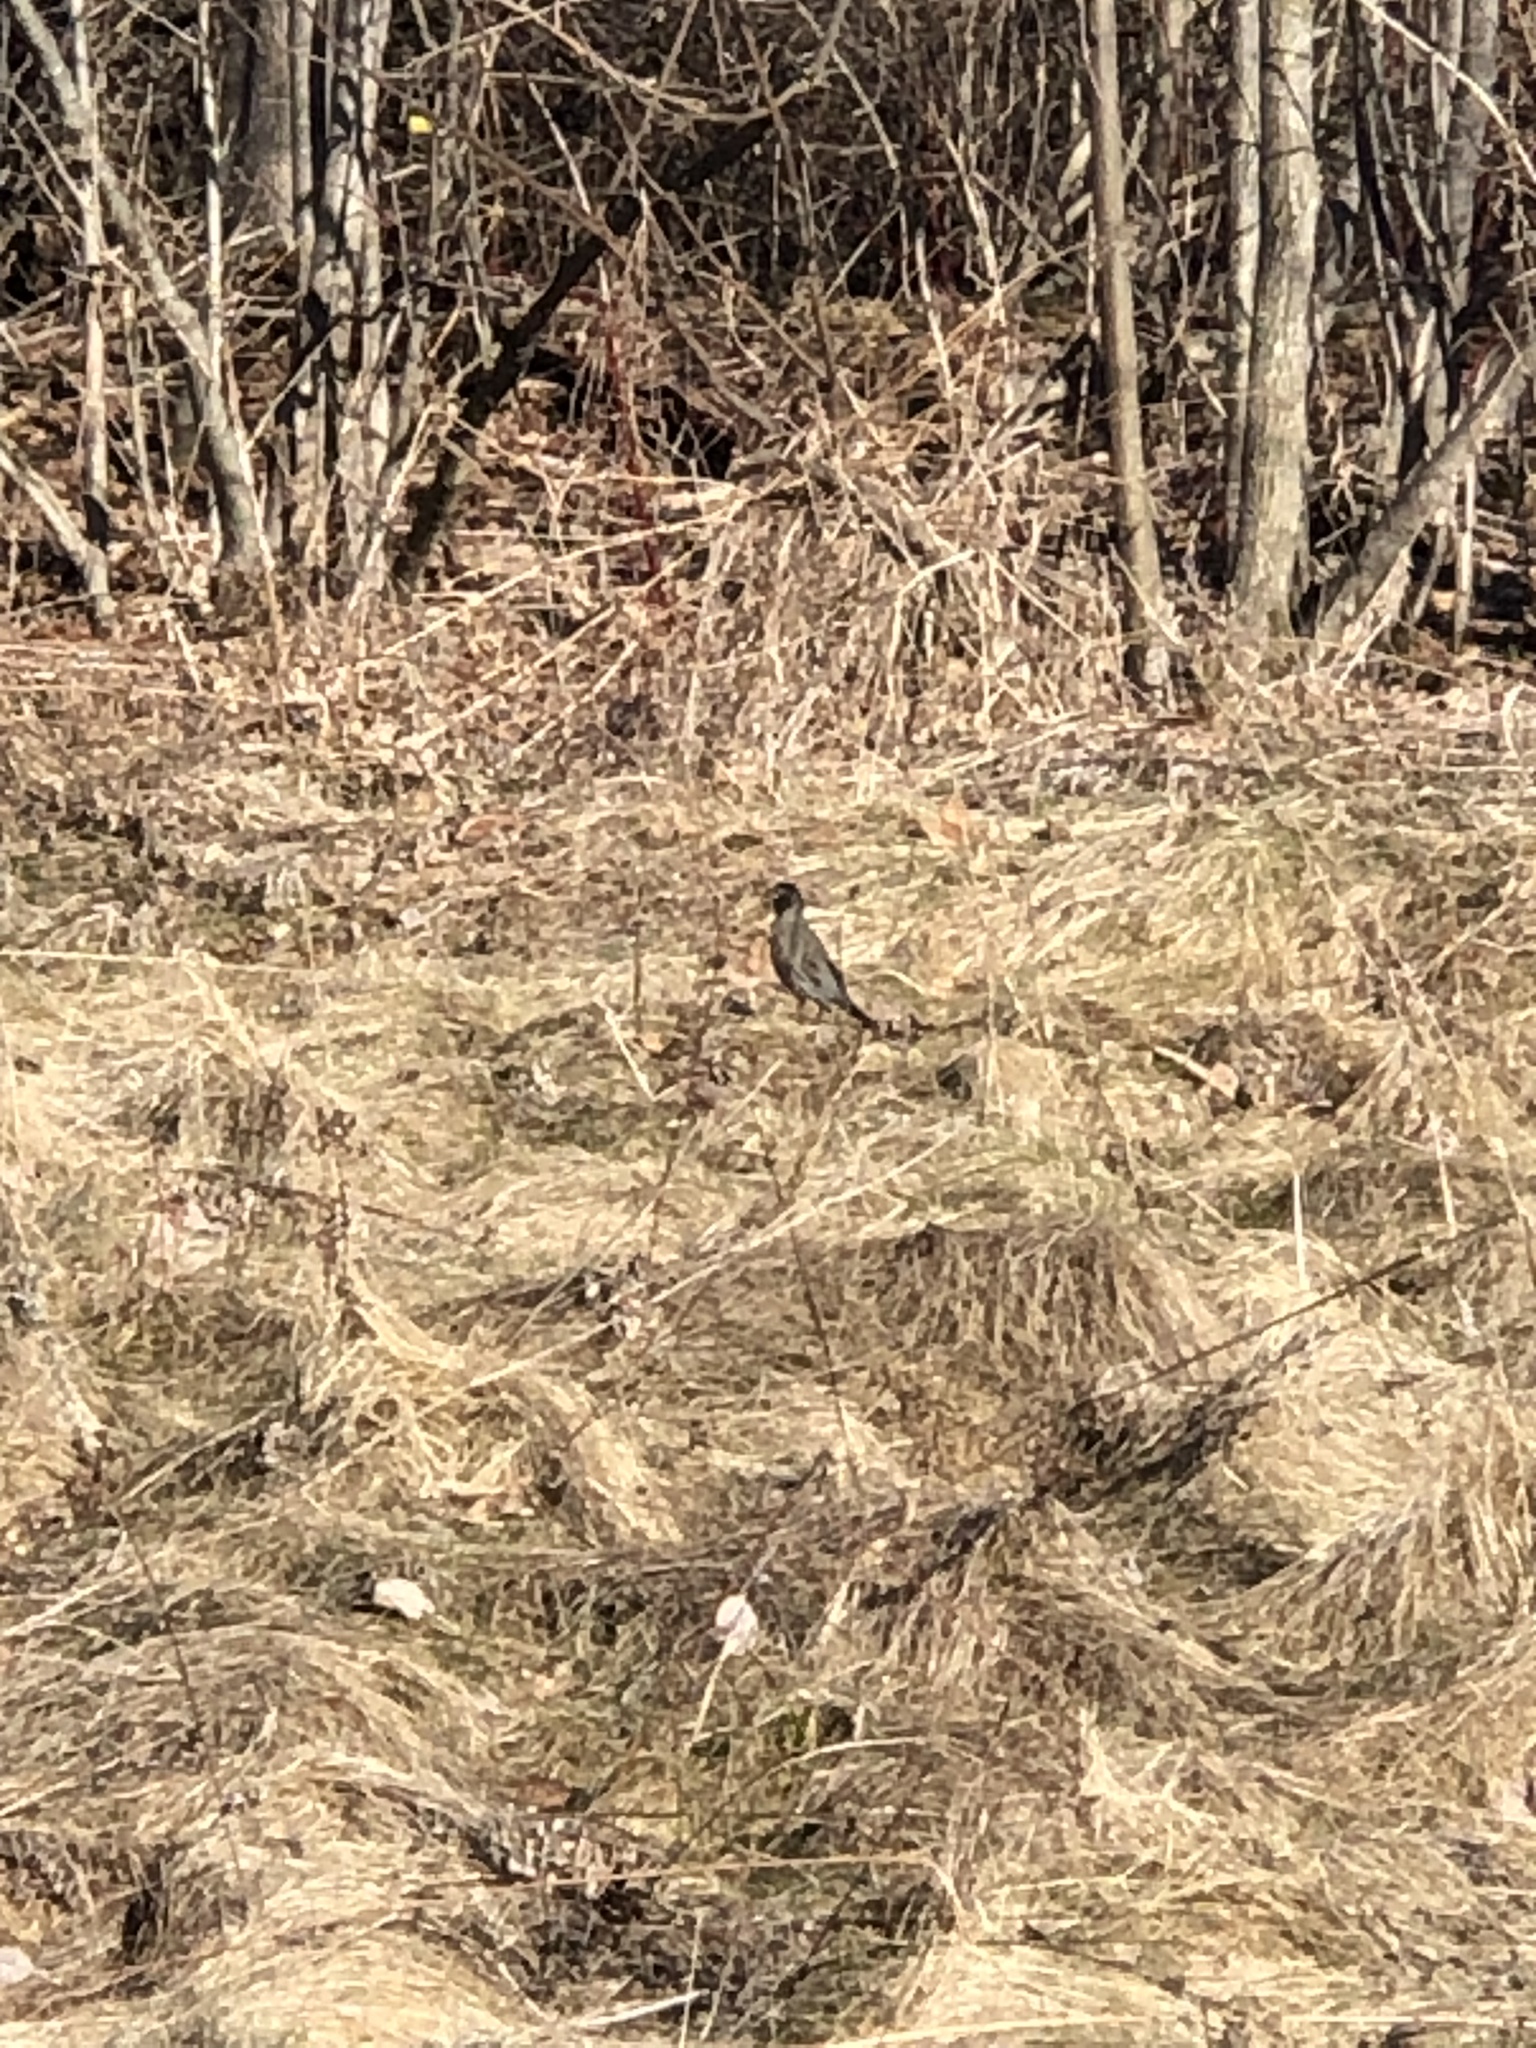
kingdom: Animalia
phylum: Chordata
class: Aves
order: Passeriformes
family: Turdidae
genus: Turdus
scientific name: Turdus migratorius
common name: American robin
